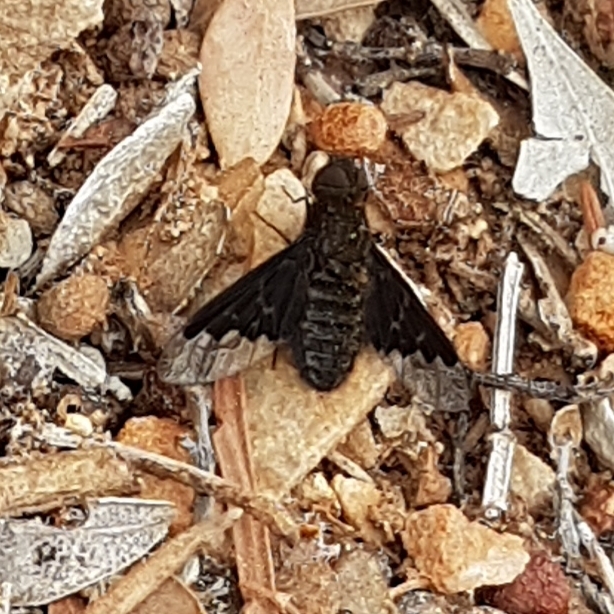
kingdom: Animalia
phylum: Arthropoda
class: Insecta
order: Diptera
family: Bombyliidae
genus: Hemipenthes
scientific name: Hemipenthes morio
